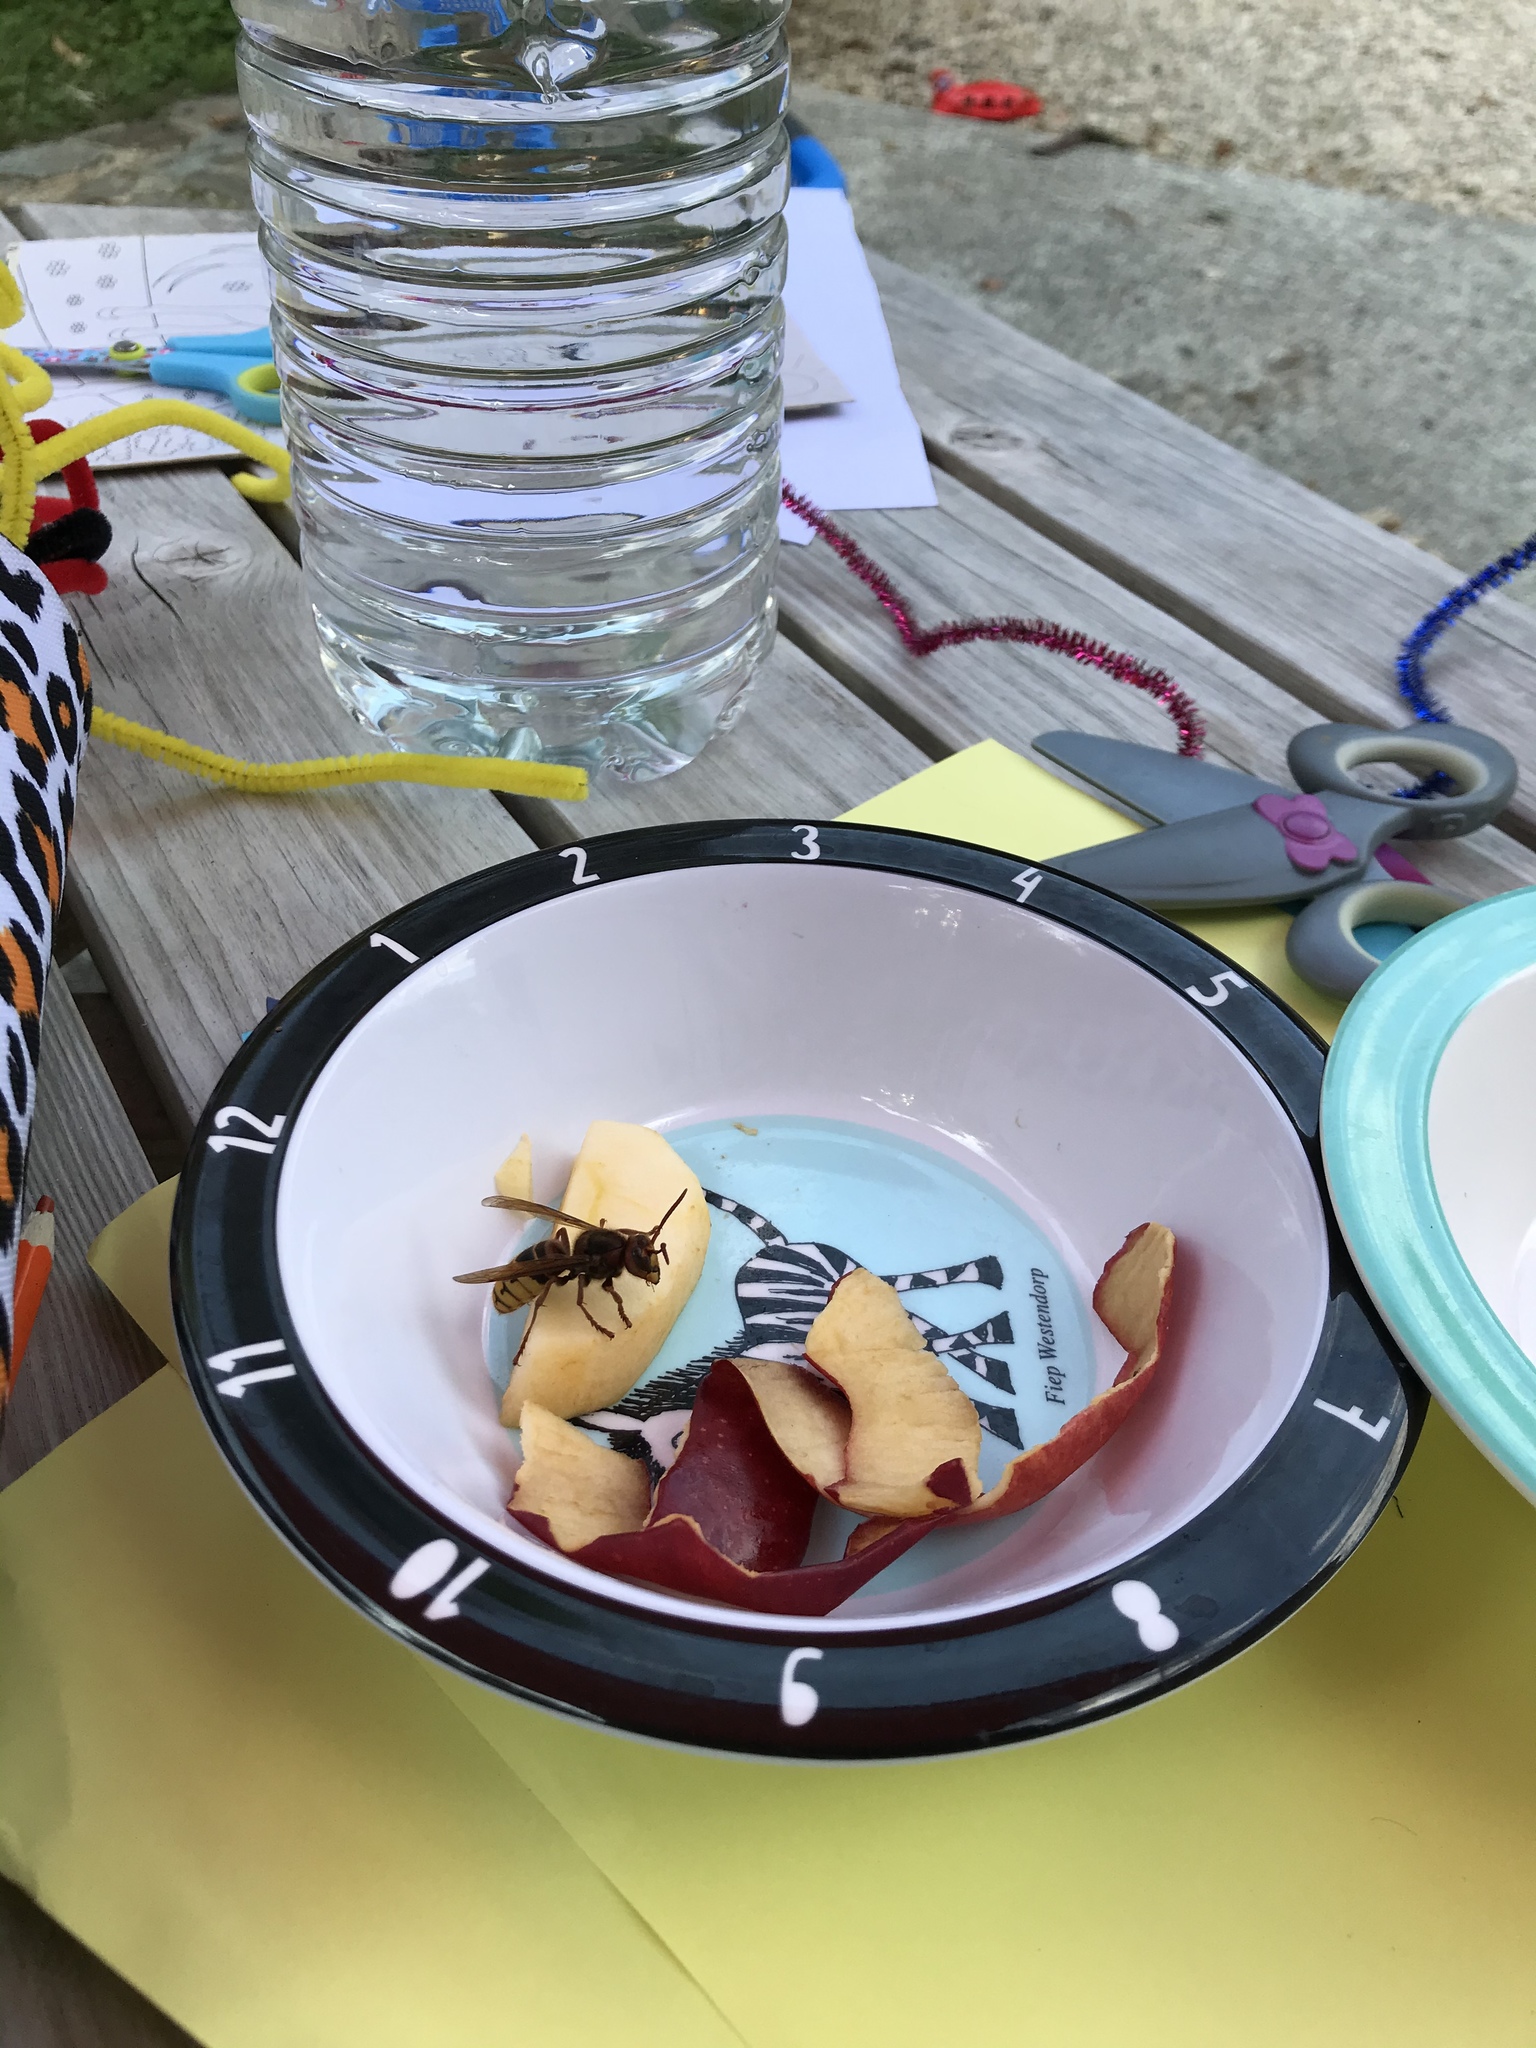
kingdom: Animalia
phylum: Arthropoda
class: Insecta
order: Hymenoptera
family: Vespidae
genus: Vespa
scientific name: Vespa crabro
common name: Hornet
